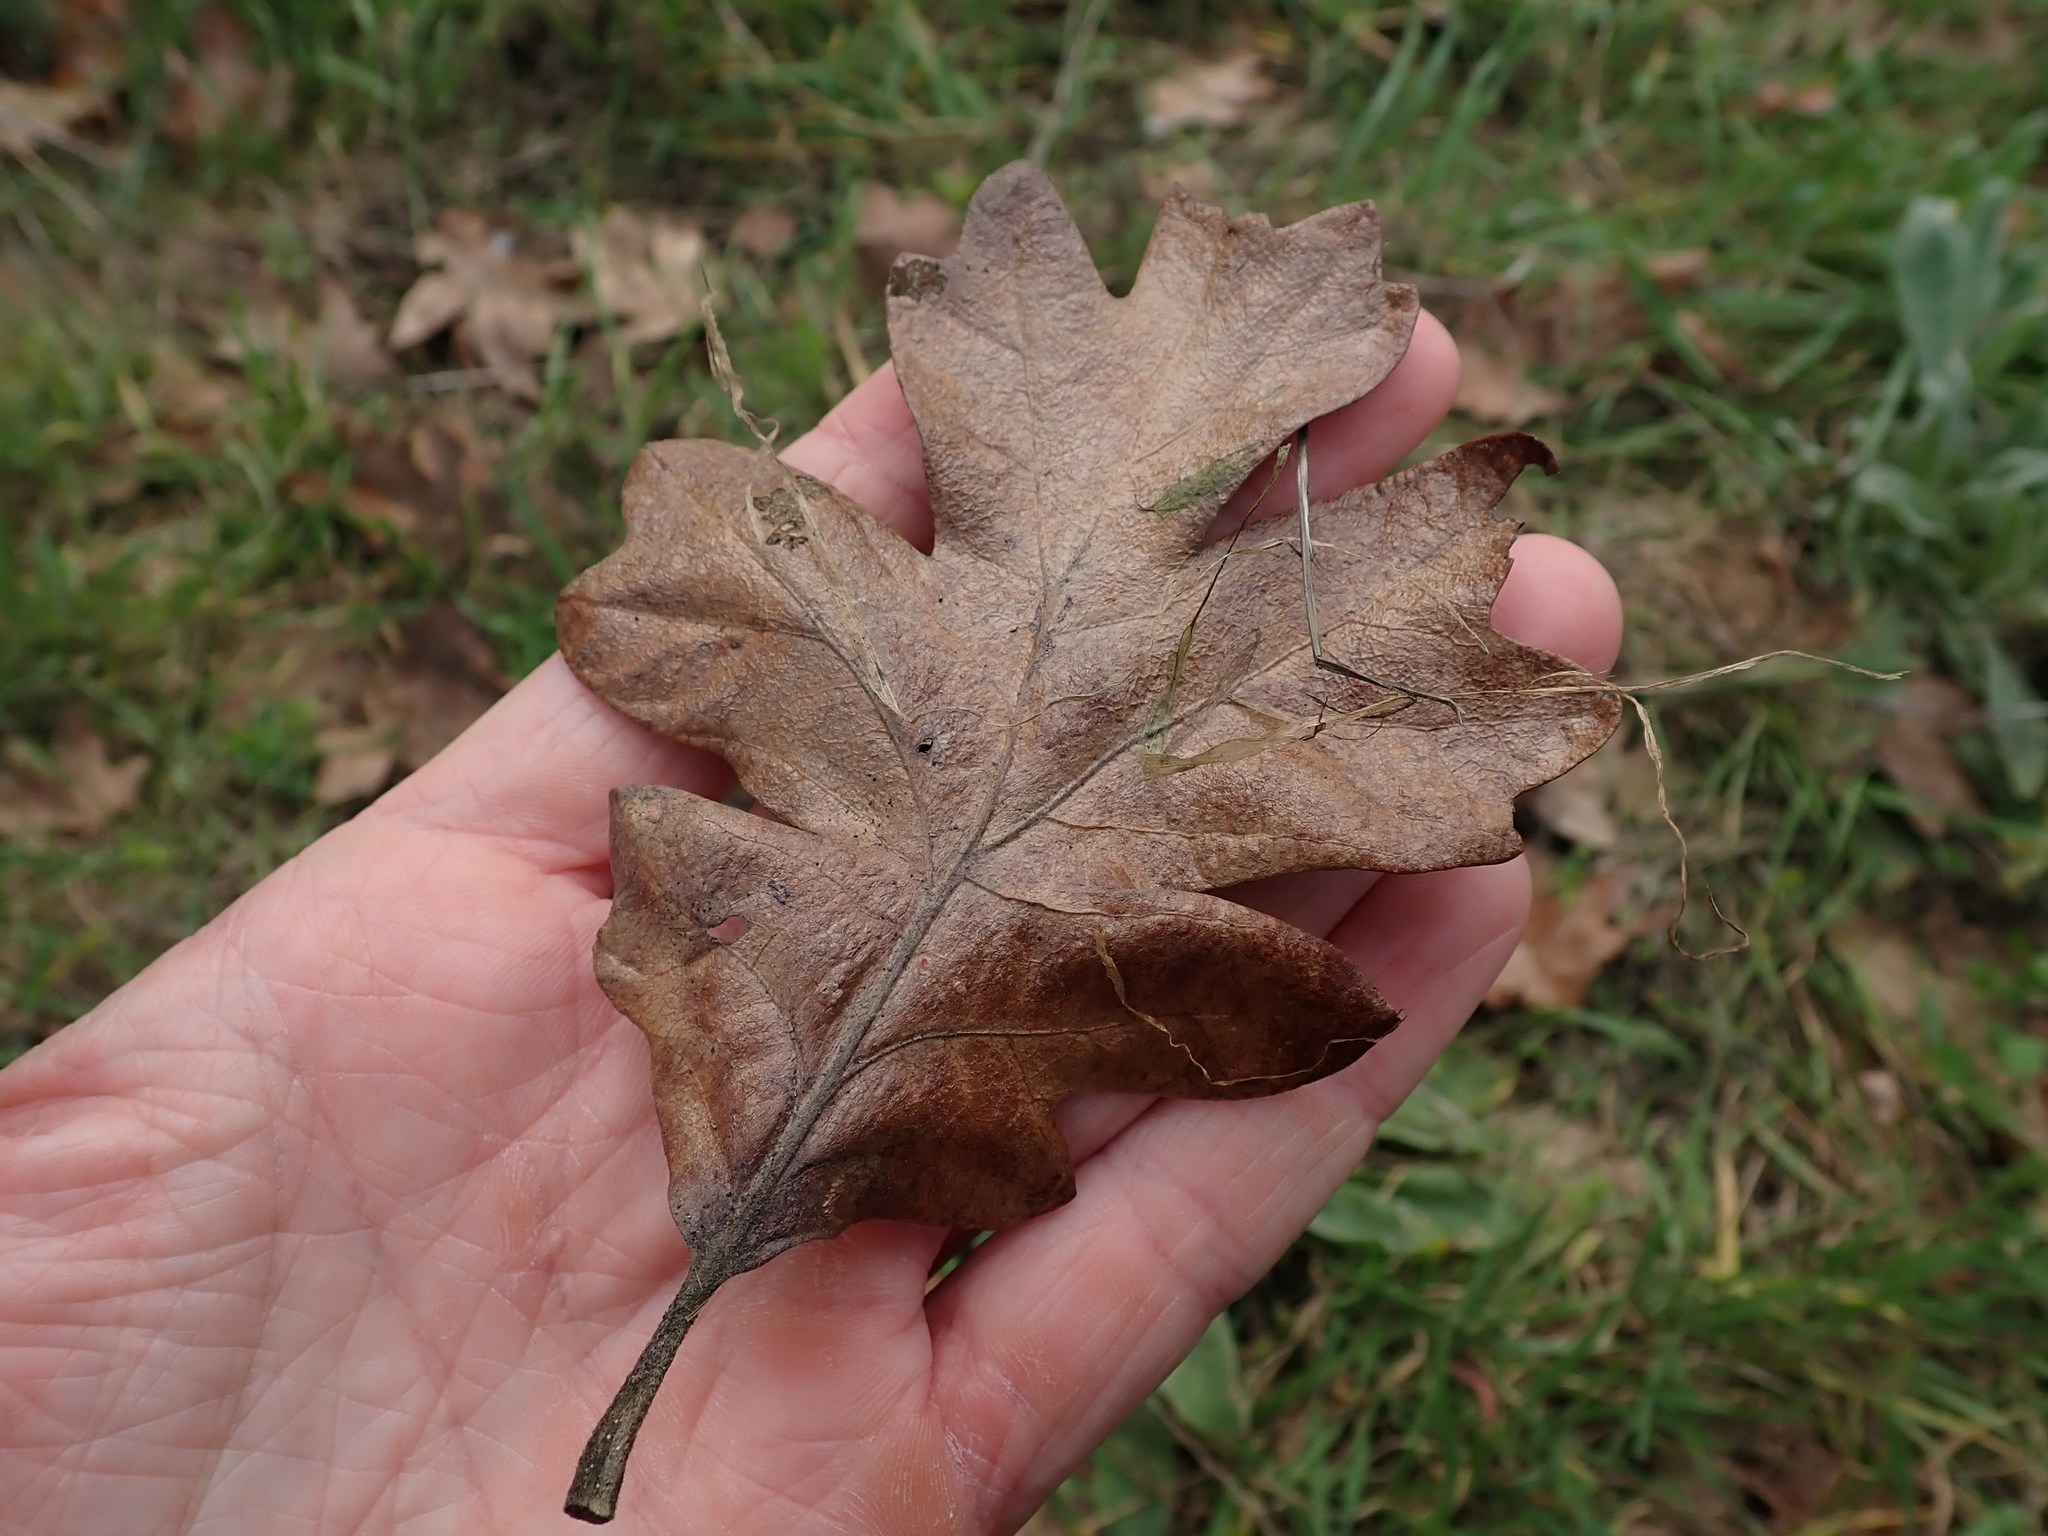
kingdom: Plantae
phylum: Tracheophyta
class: Magnoliopsida
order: Fagales
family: Fagaceae
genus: Quercus
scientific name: Quercus garryana
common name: Garry oak
